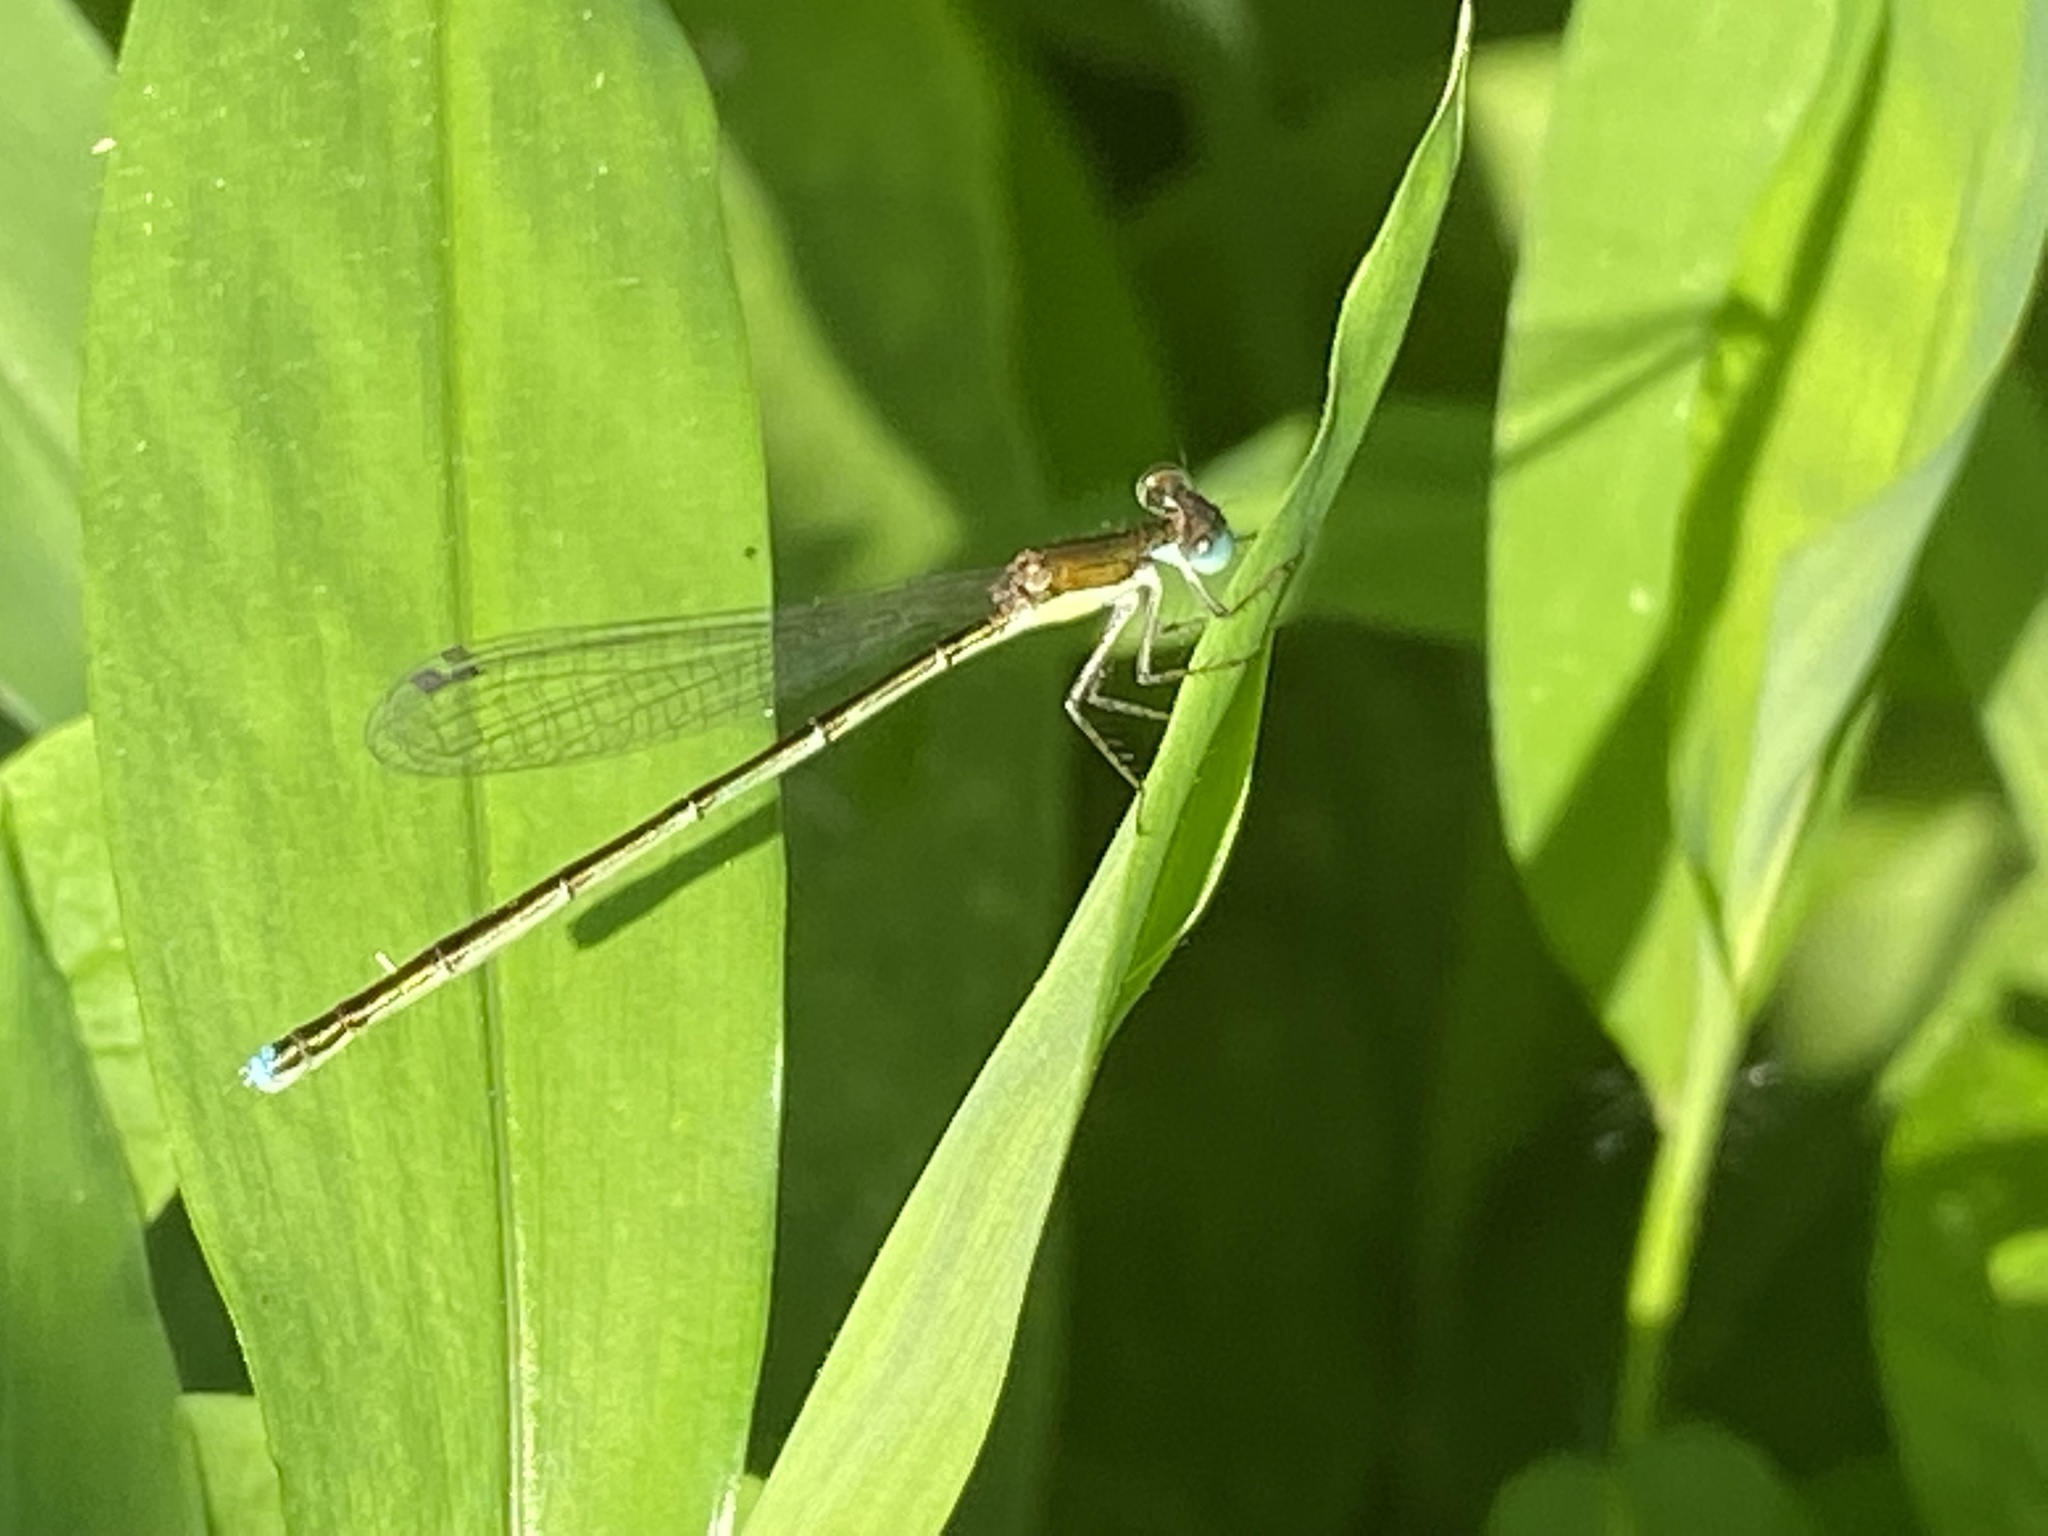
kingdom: Animalia
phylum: Arthropoda
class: Insecta
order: Odonata
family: Coenagrionidae
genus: Nehalennia
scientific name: Nehalennia integricollis
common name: Southern sprite
